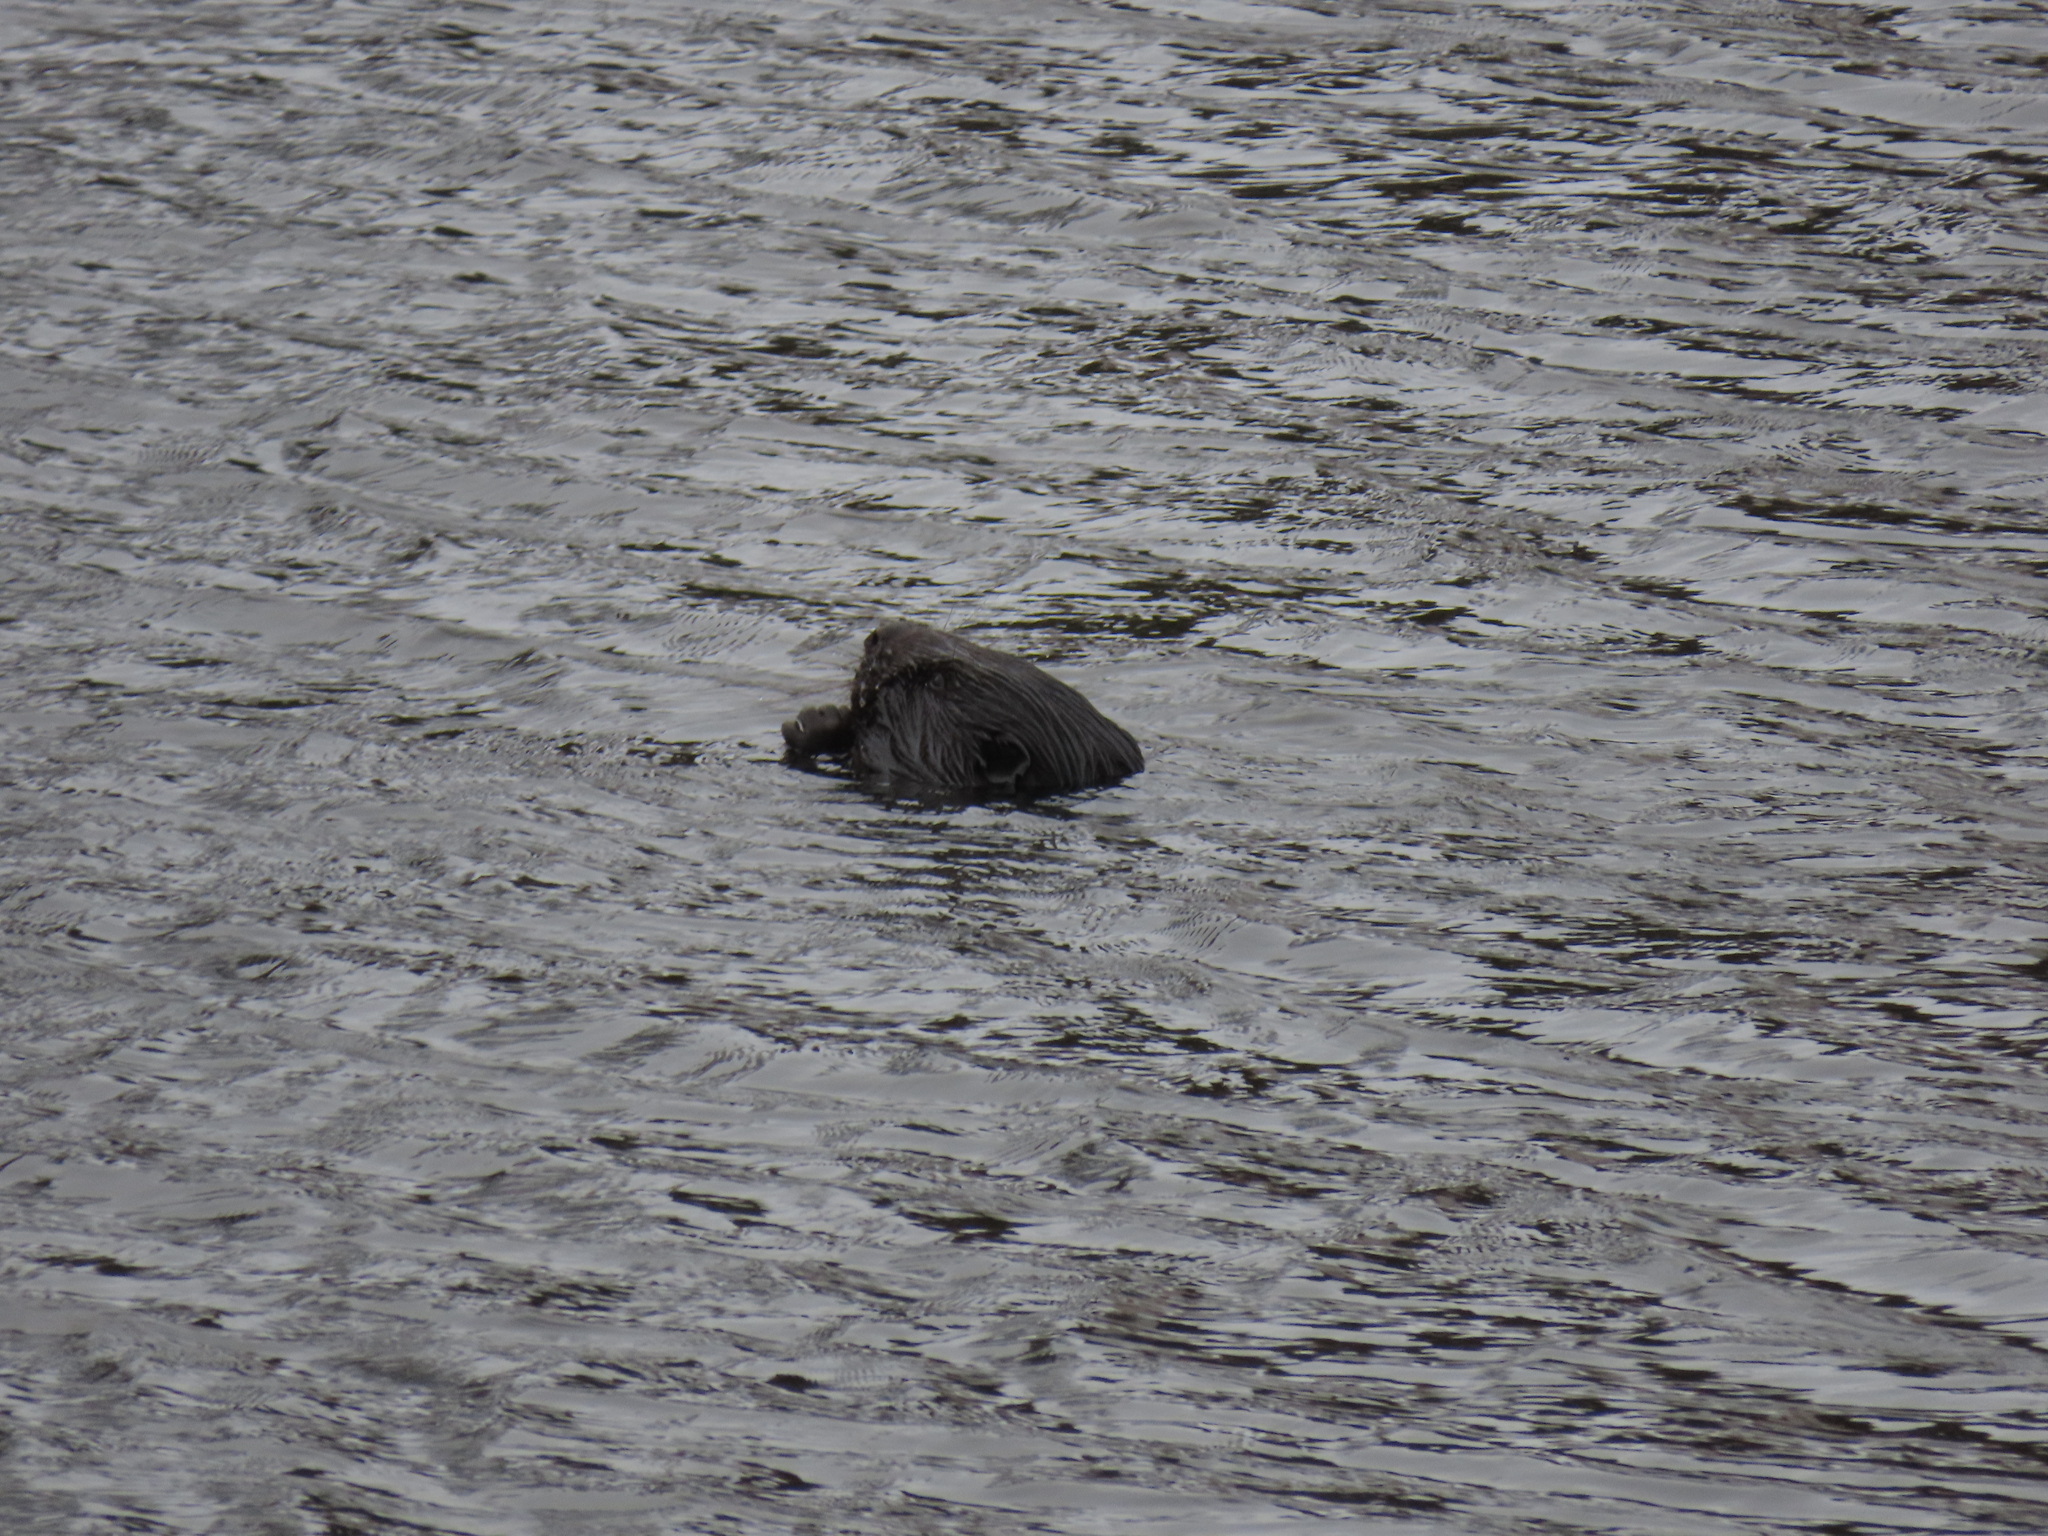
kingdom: Animalia
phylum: Chordata
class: Mammalia
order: Rodentia
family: Castoridae
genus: Castor
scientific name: Castor fiber
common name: Eurasian beaver
